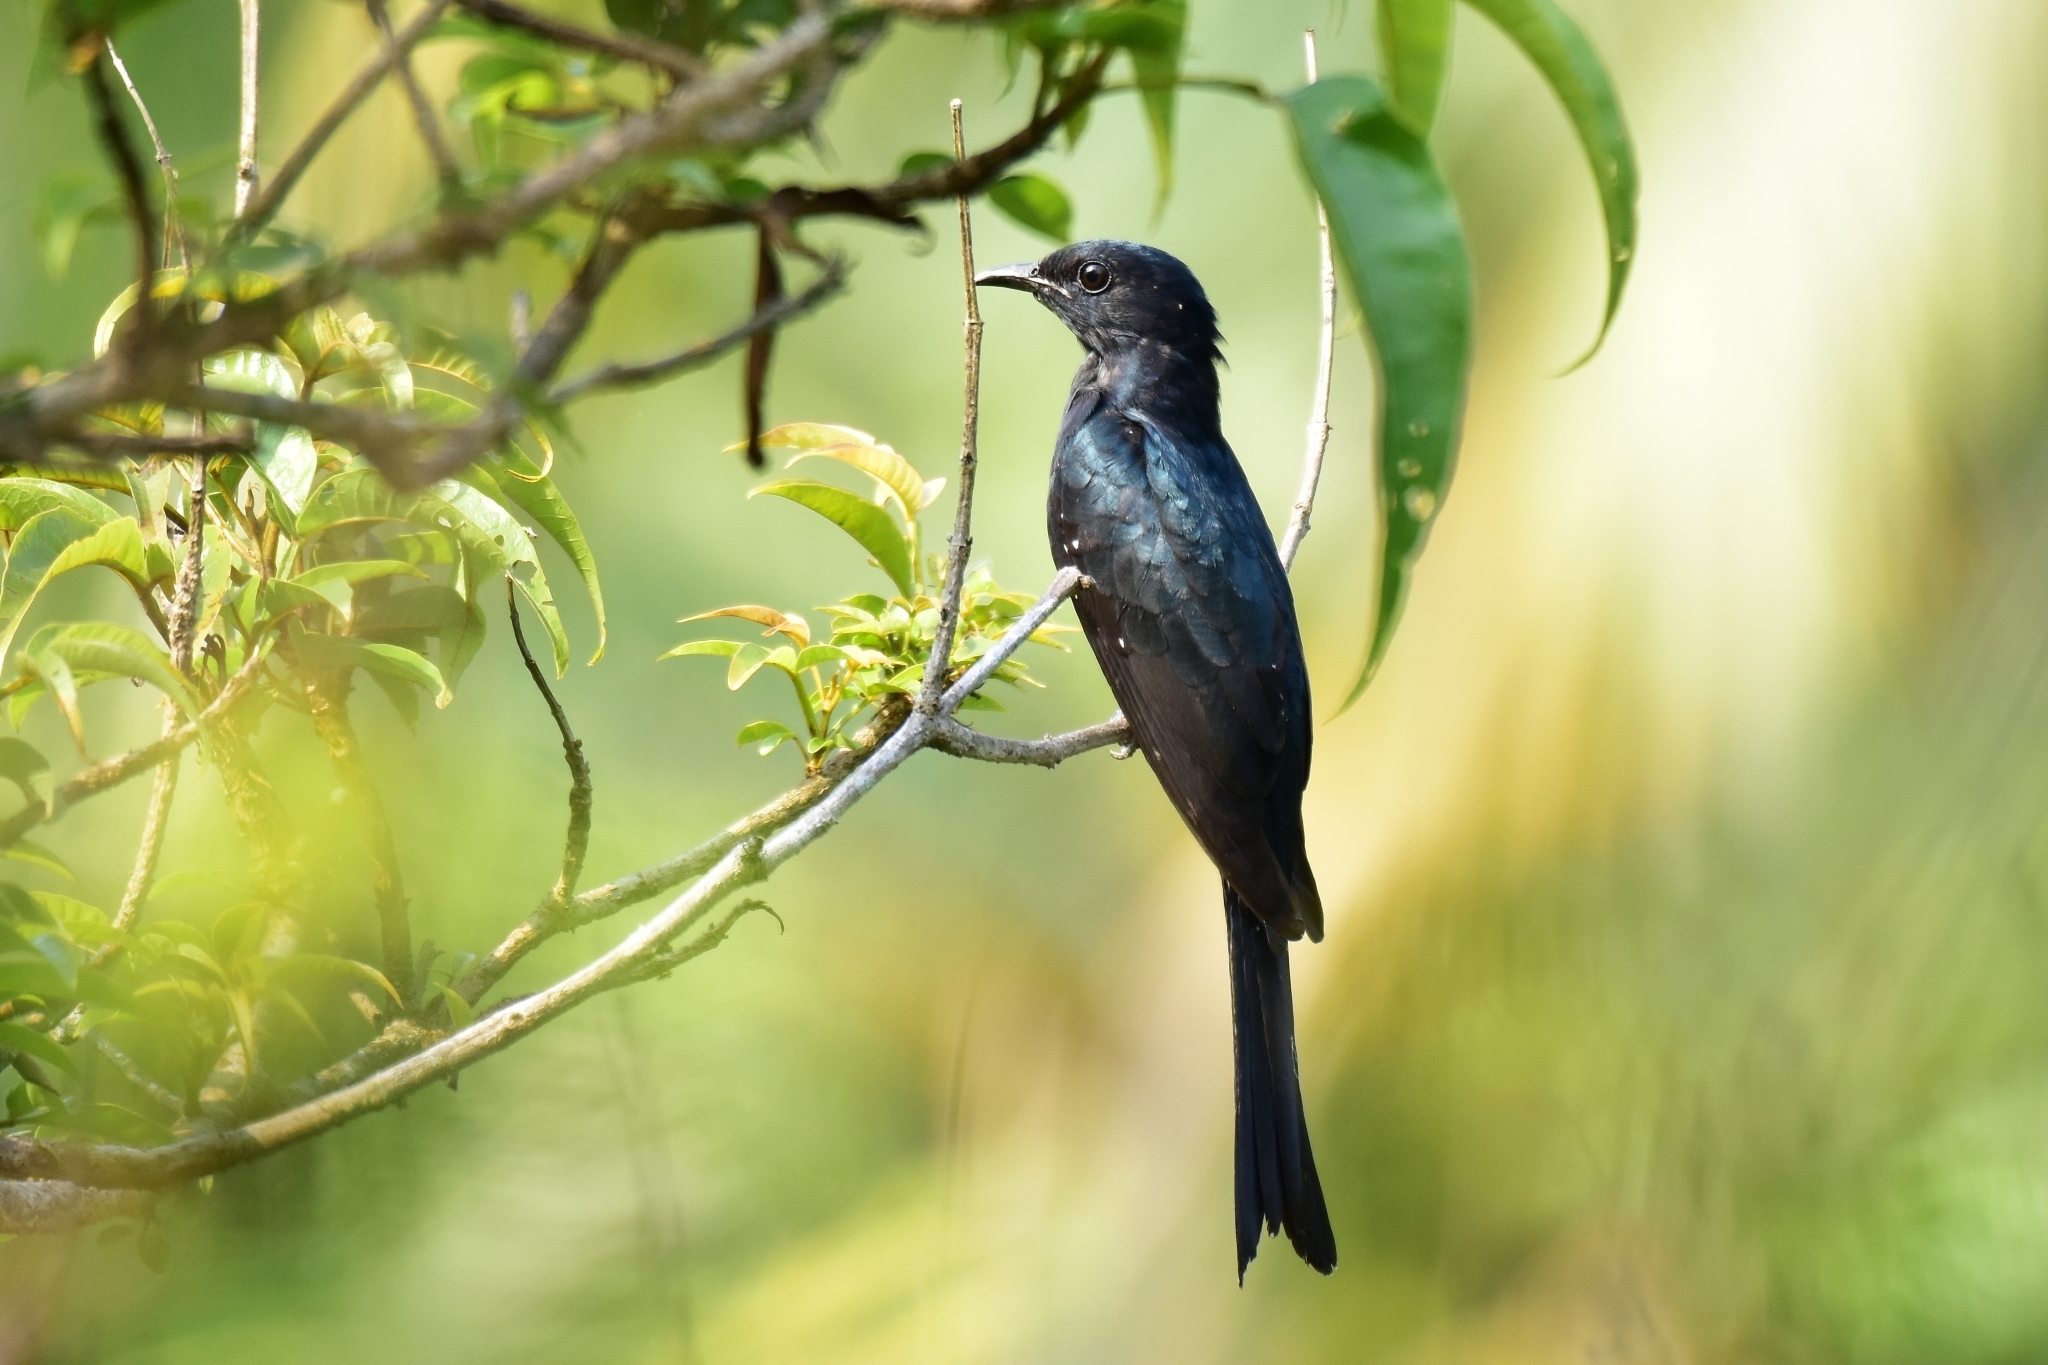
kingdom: Animalia
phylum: Chordata
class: Aves
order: Cuculiformes
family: Cuculidae
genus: Surniculus
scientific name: Surniculus lugubris
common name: Square-tailed drongo-cuckoo
